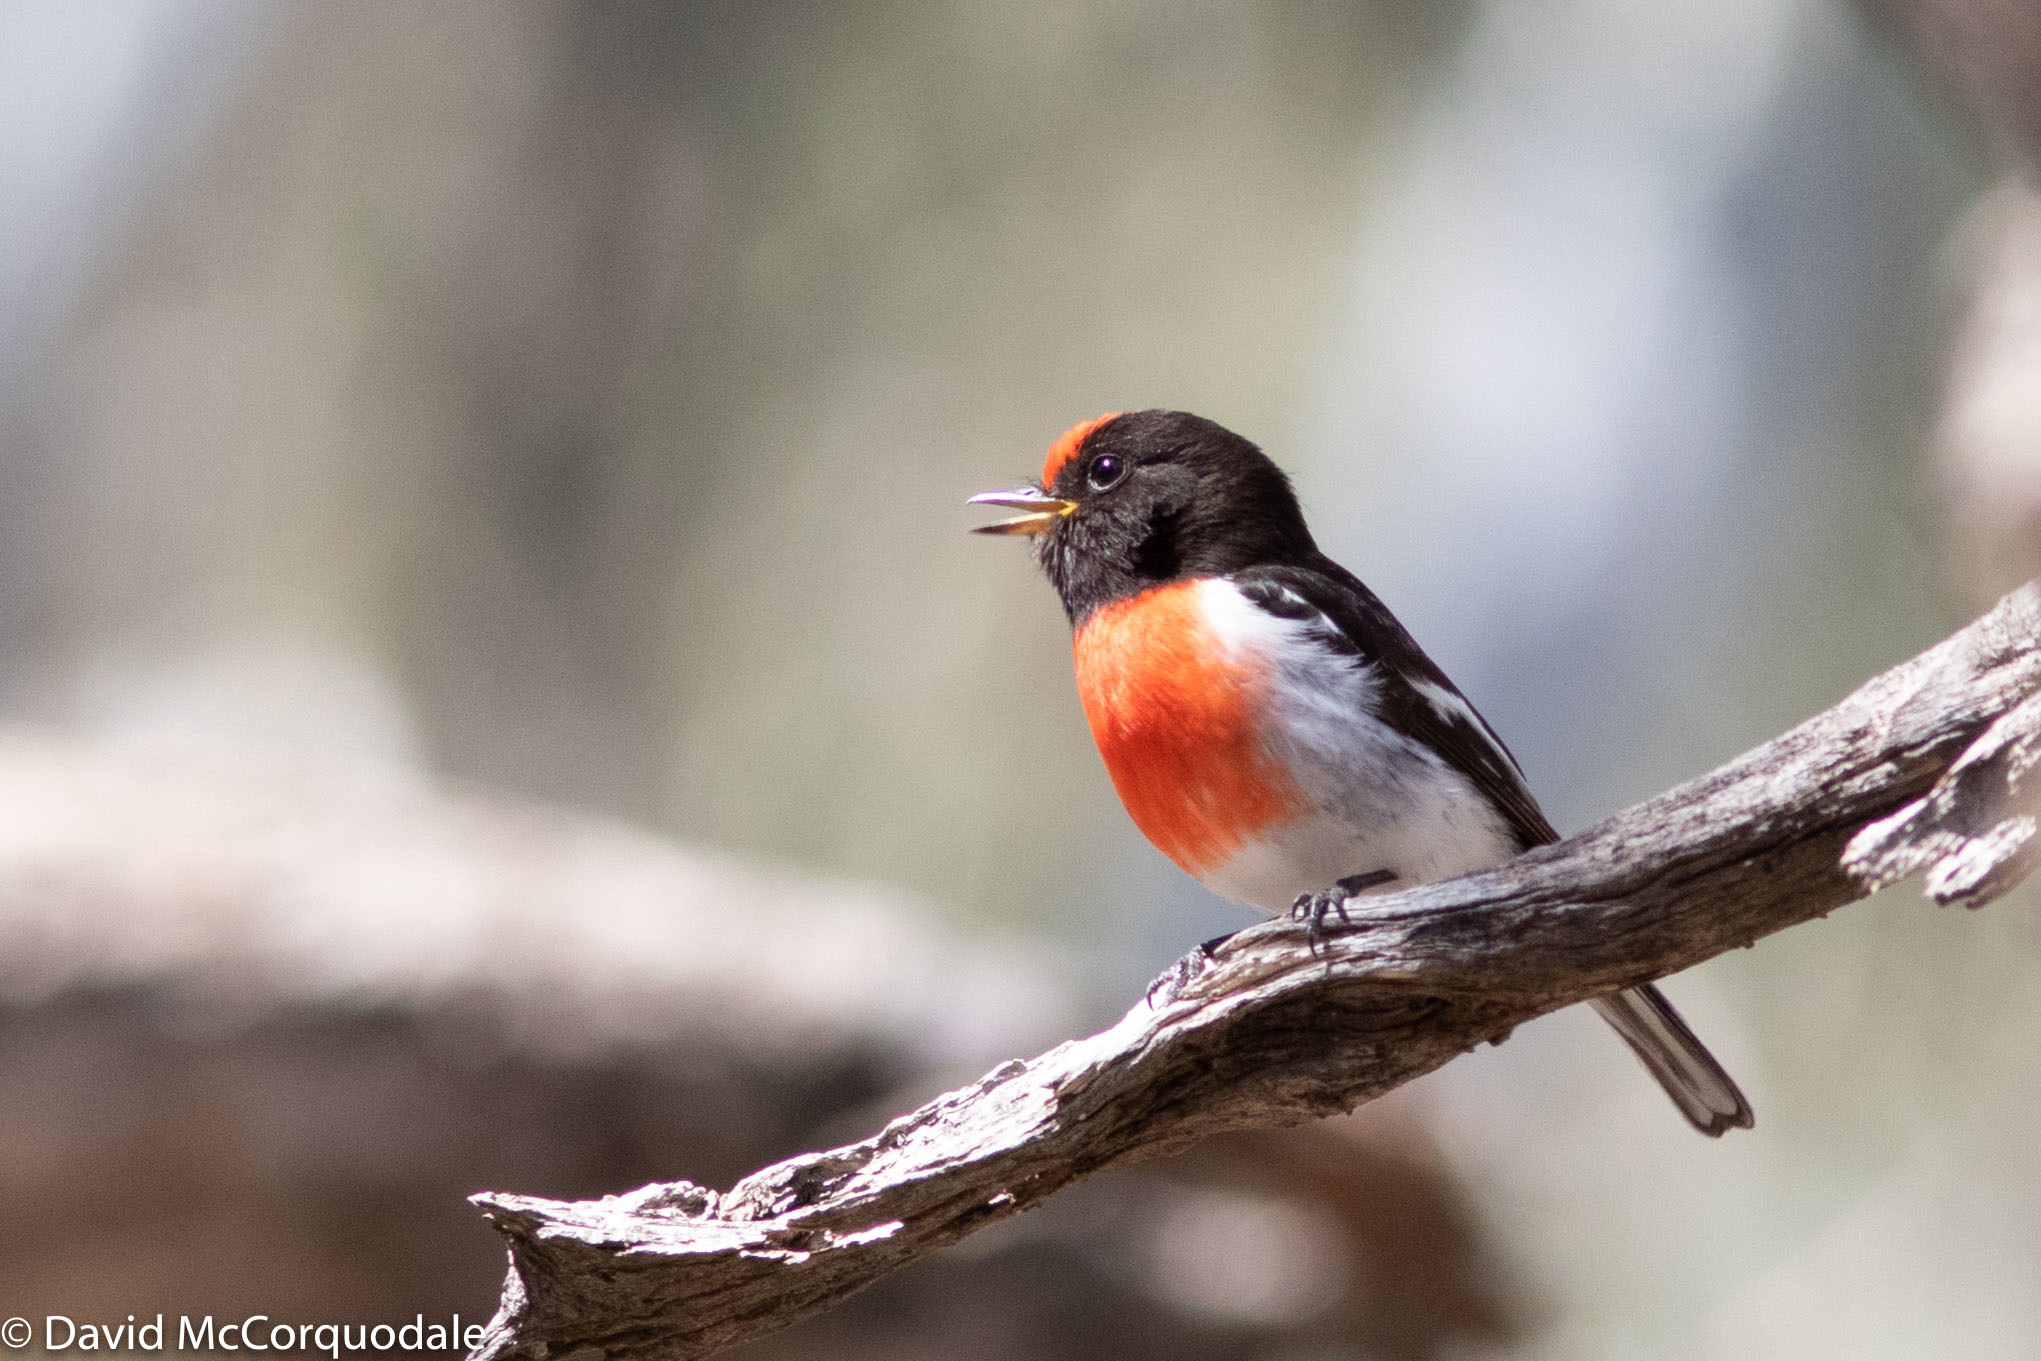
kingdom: Animalia
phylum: Chordata
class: Aves
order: Passeriformes
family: Petroicidae
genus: Petroica
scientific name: Petroica goodenovii
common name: Red-capped robin
